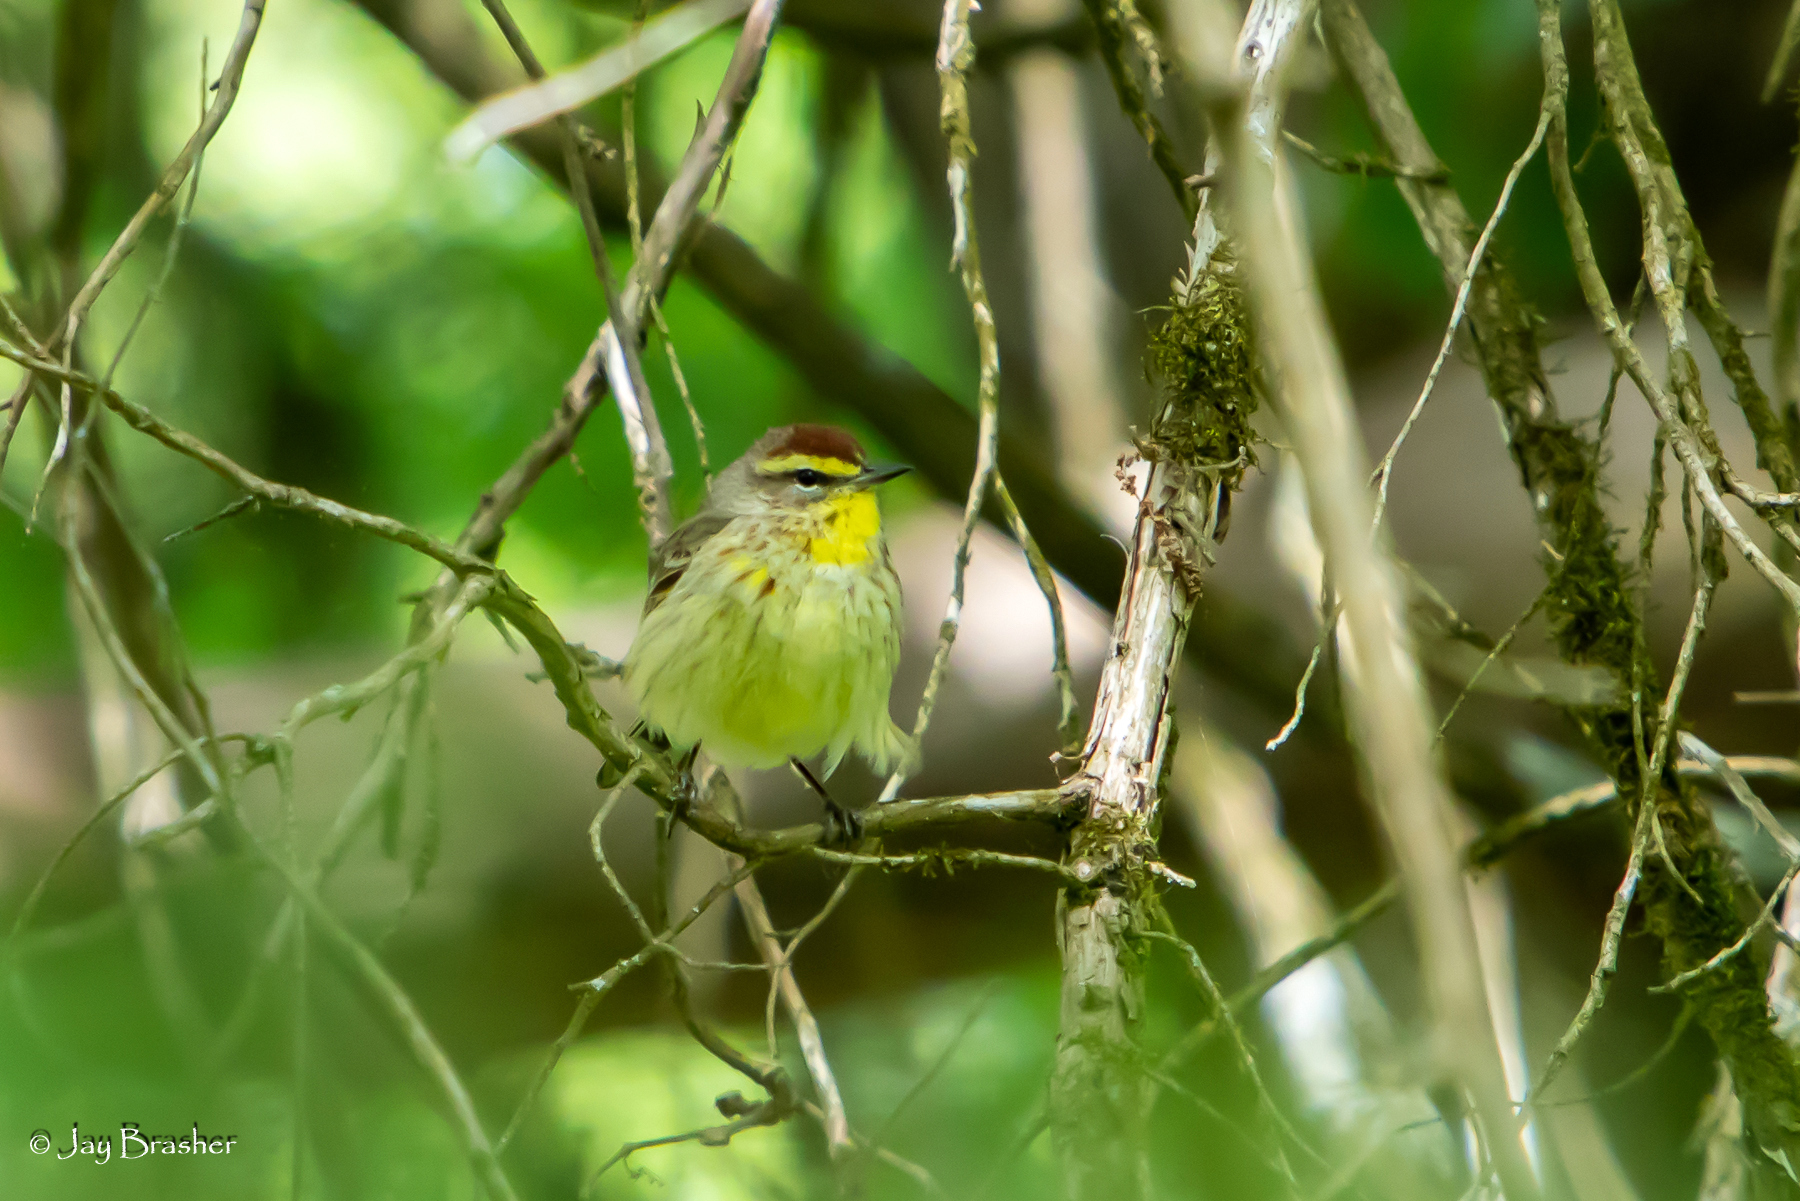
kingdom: Animalia
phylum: Chordata
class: Aves
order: Passeriformes
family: Parulidae
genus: Setophaga
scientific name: Setophaga palmarum
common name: Palm warbler
